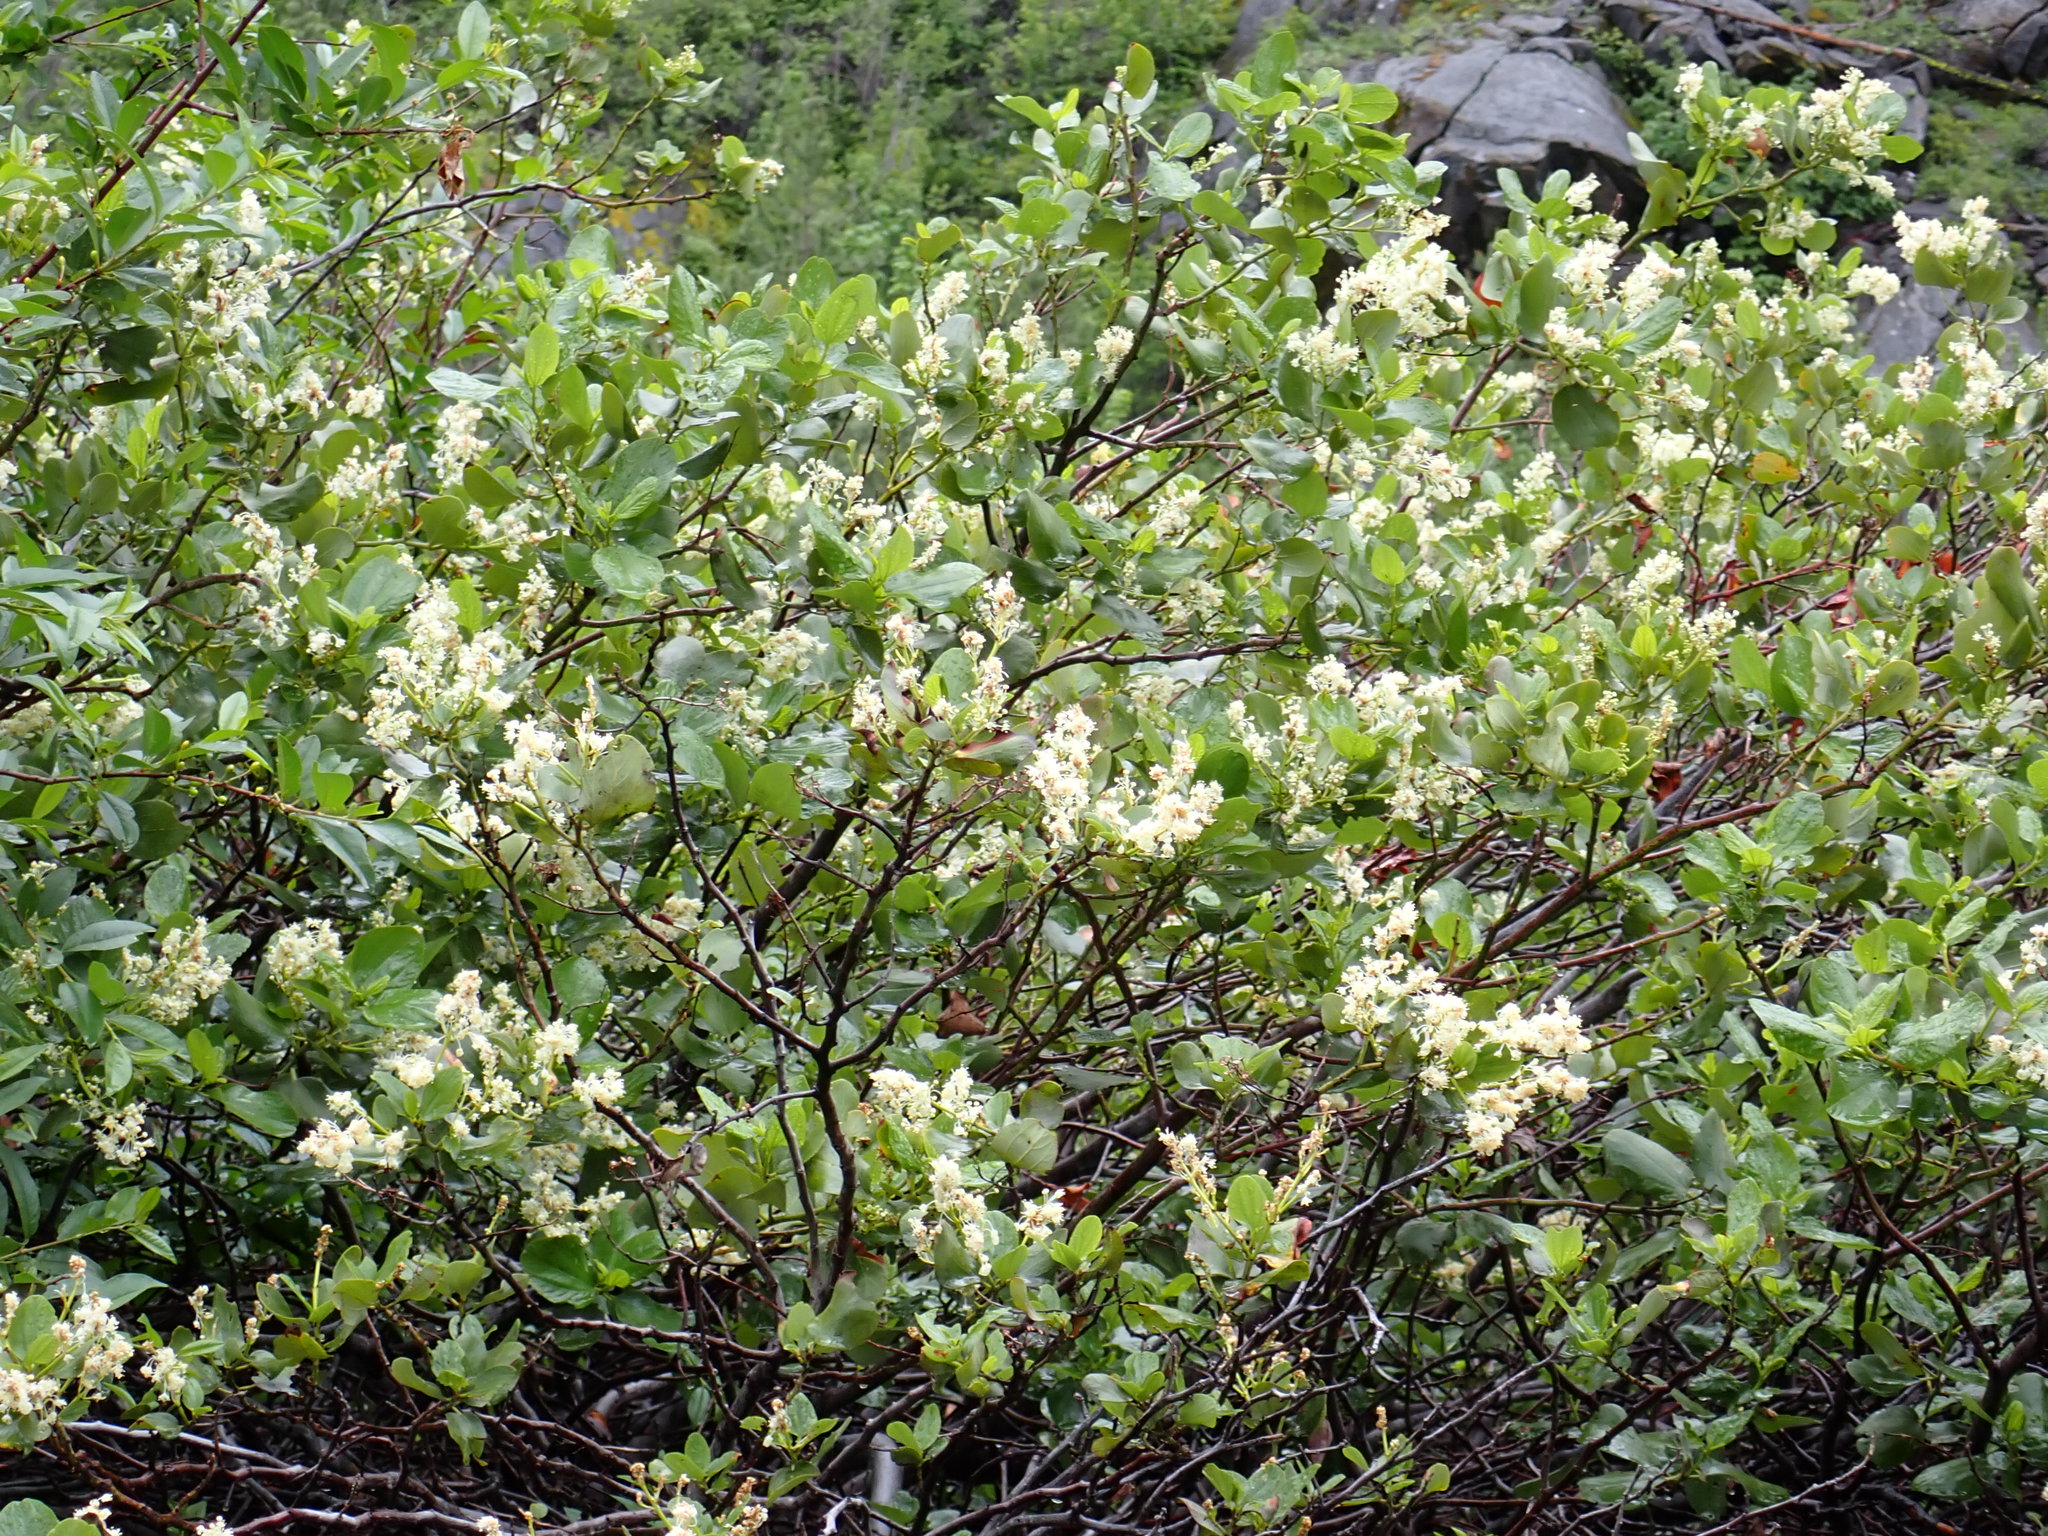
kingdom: Plantae
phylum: Tracheophyta
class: Magnoliopsida
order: Rosales
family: Rhamnaceae
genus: Ceanothus
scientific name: Ceanothus velutinus
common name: Snowbrush
